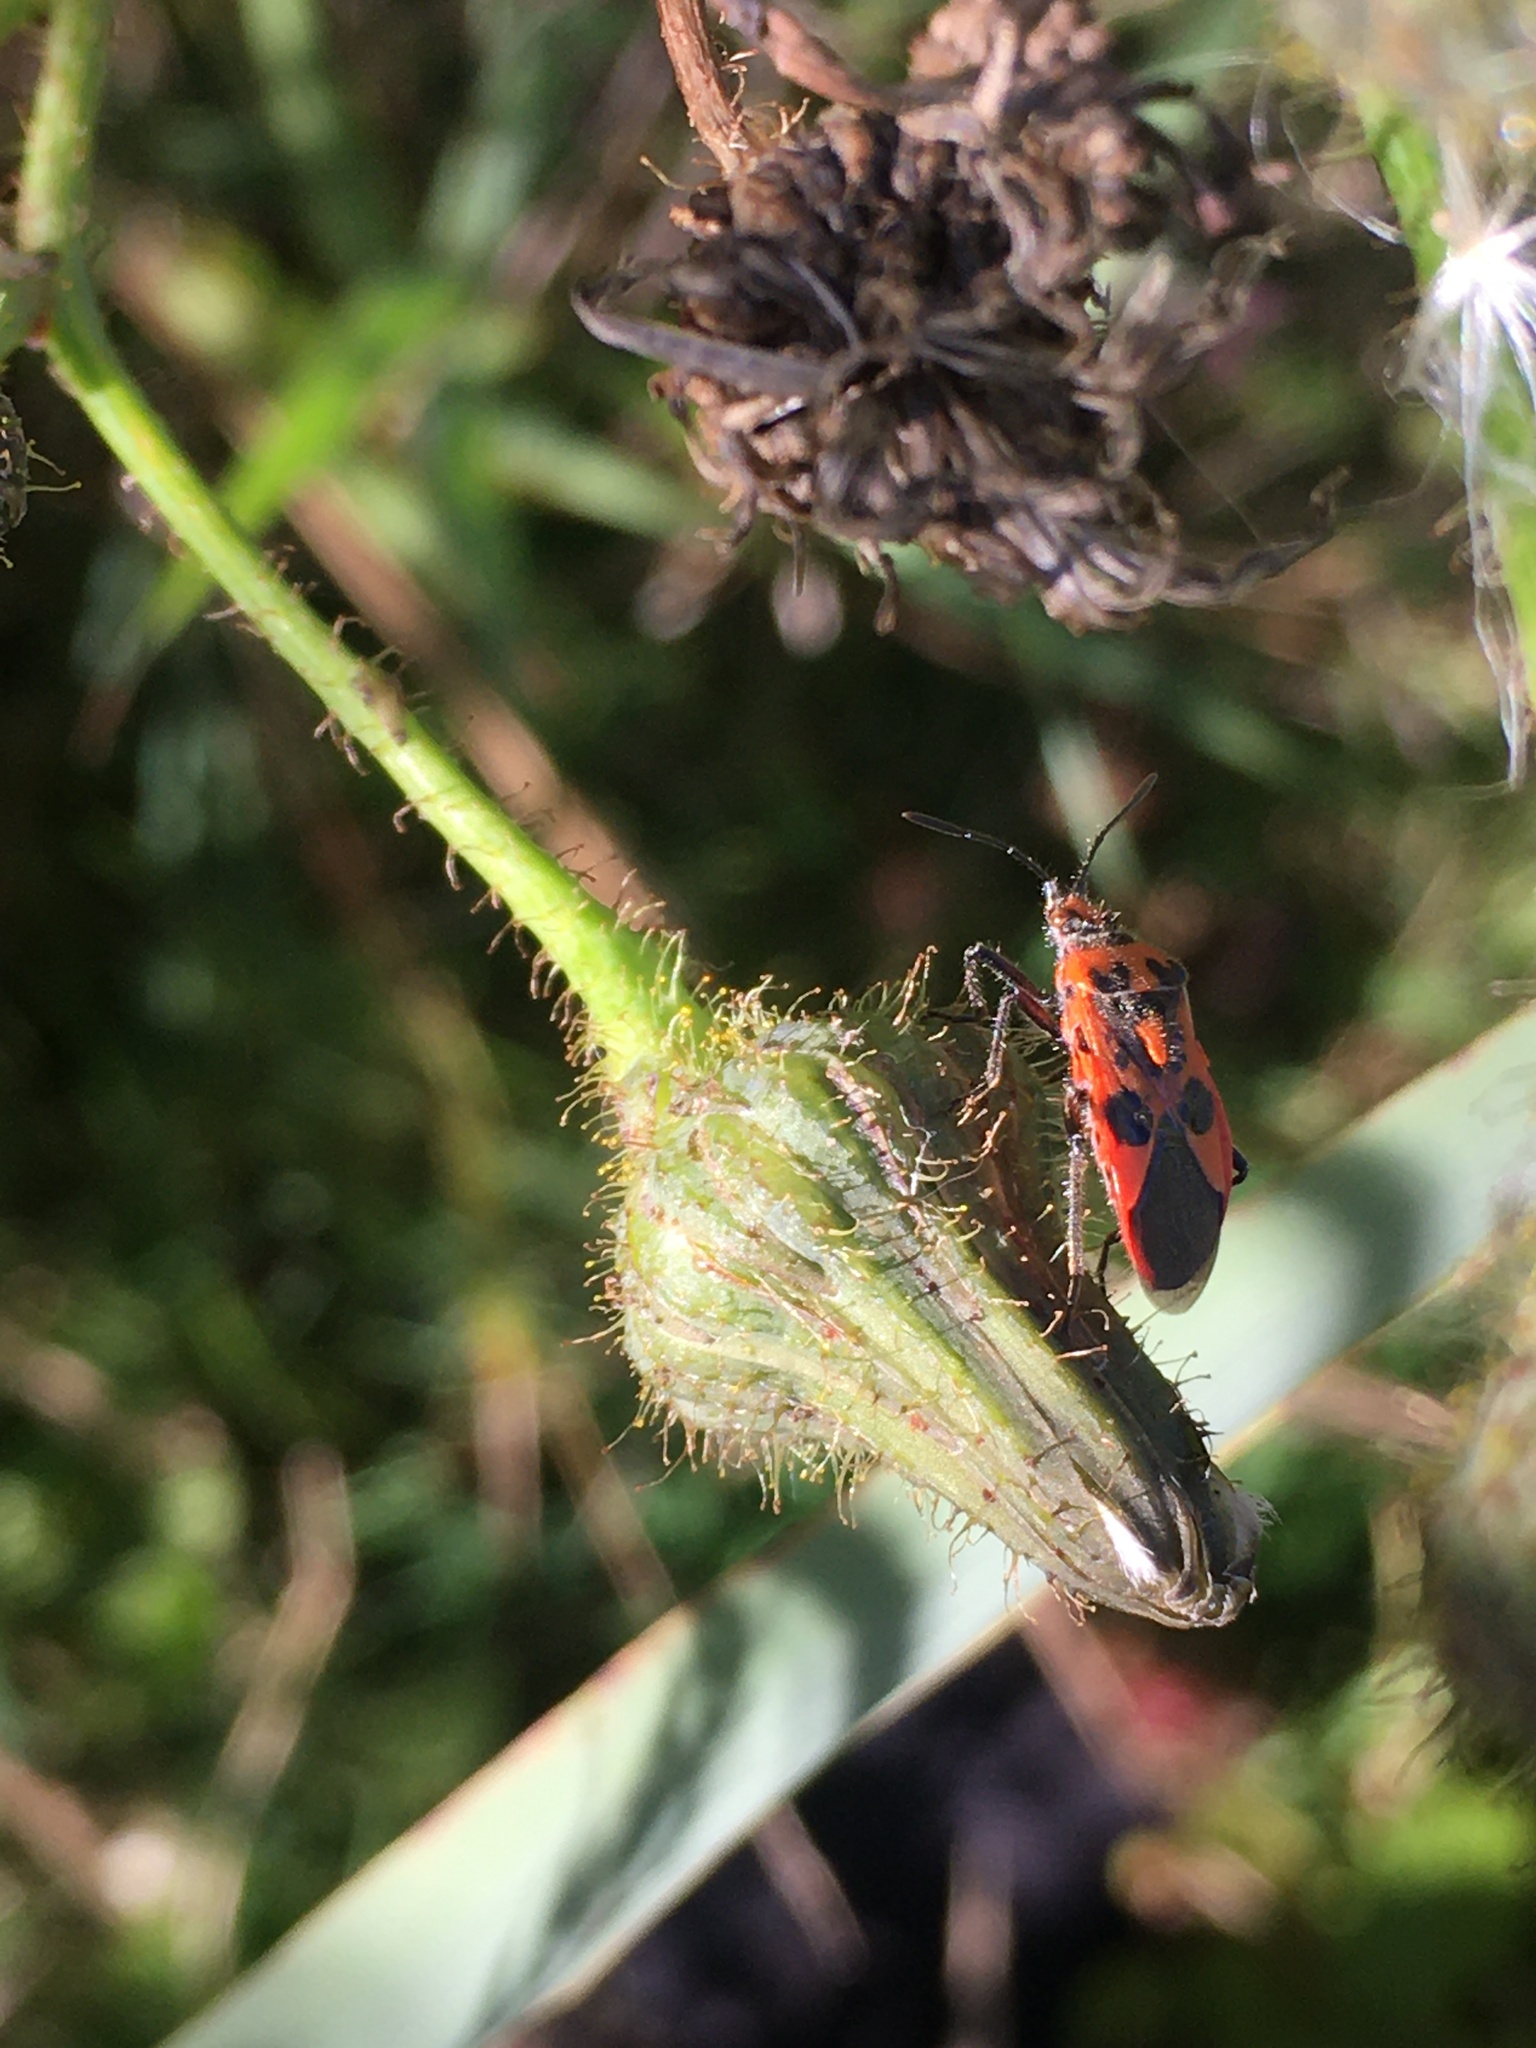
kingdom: Animalia
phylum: Arthropoda
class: Insecta
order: Hemiptera
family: Rhopalidae
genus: Corizus
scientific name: Corizus hyoscyami
